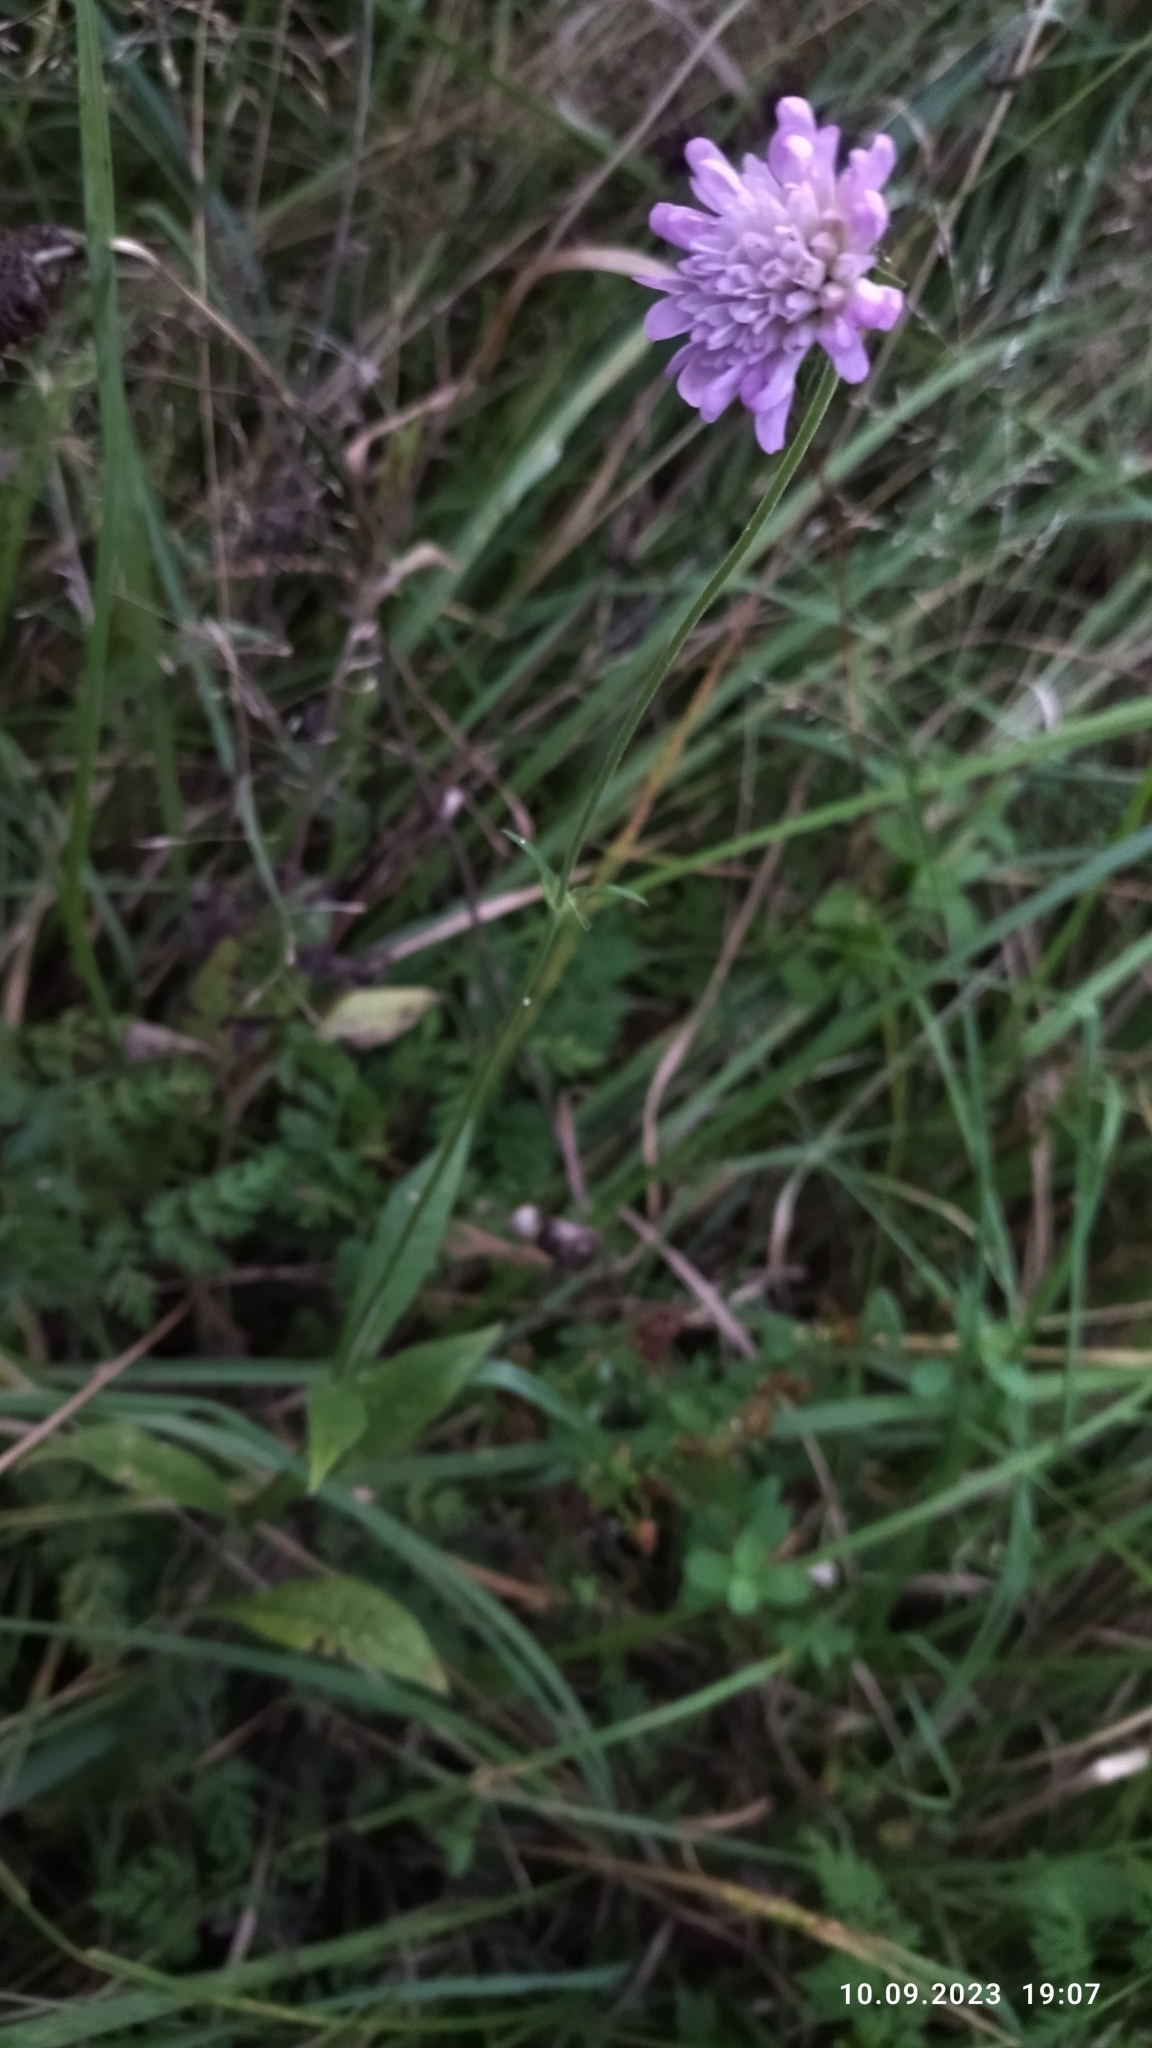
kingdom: Plantae
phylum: Tracheophyta
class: Magnoliopsida
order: Dipsacales
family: Caprifoliaceae
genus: Knautia
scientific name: Knautia arvensis
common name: Field scabiosa
